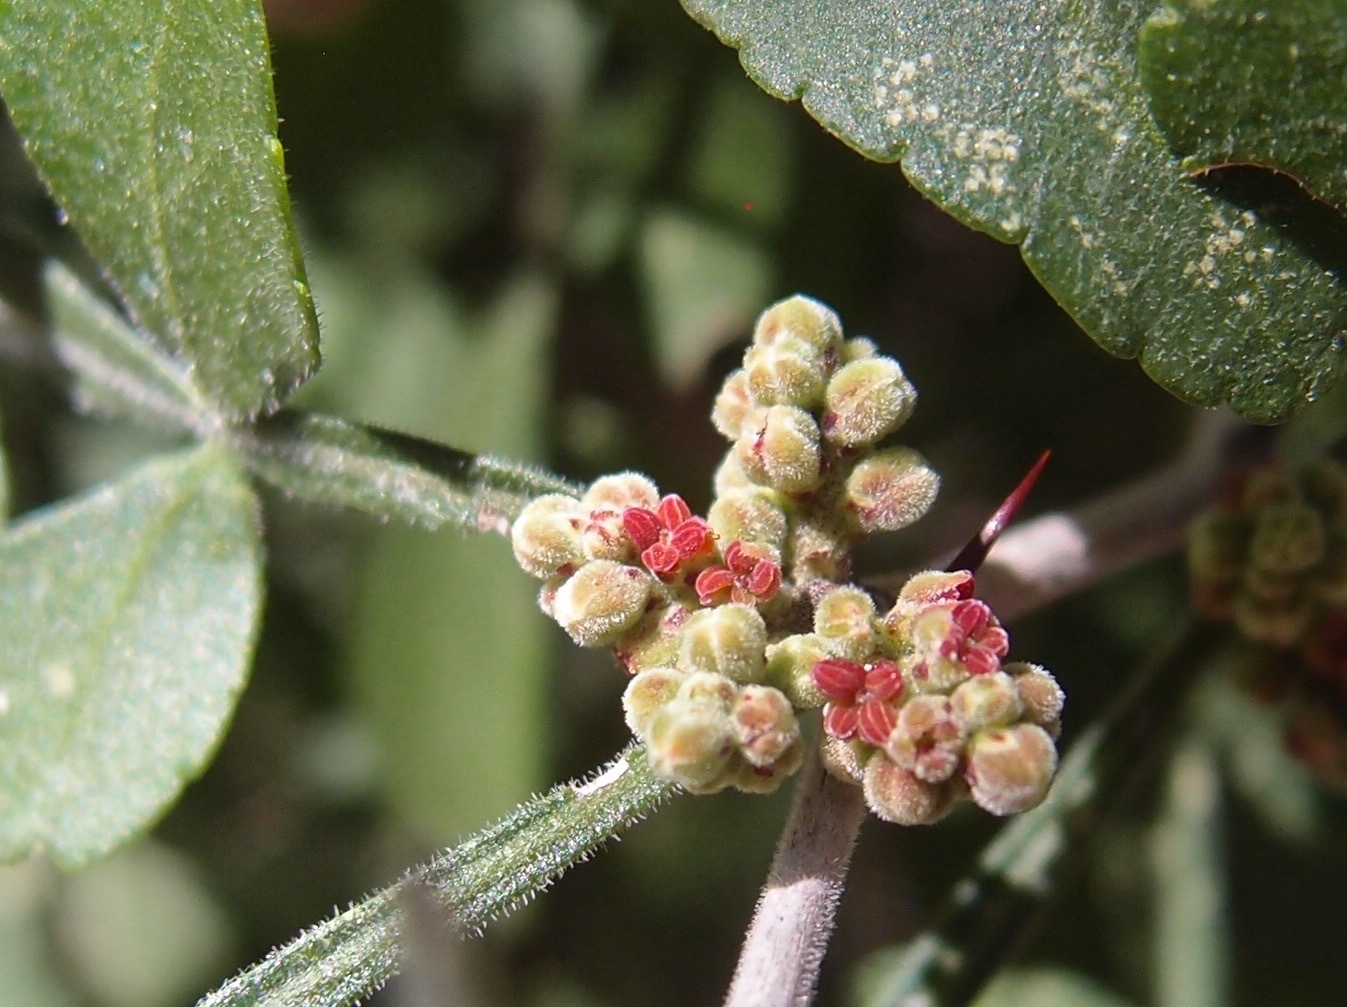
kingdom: Plantae
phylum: Tracheophyta
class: Magnoliopsida
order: Sapindales
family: Rutaceae
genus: Zanthoxylum
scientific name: Zanthoxylum fagara
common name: Lime prickly-ash
